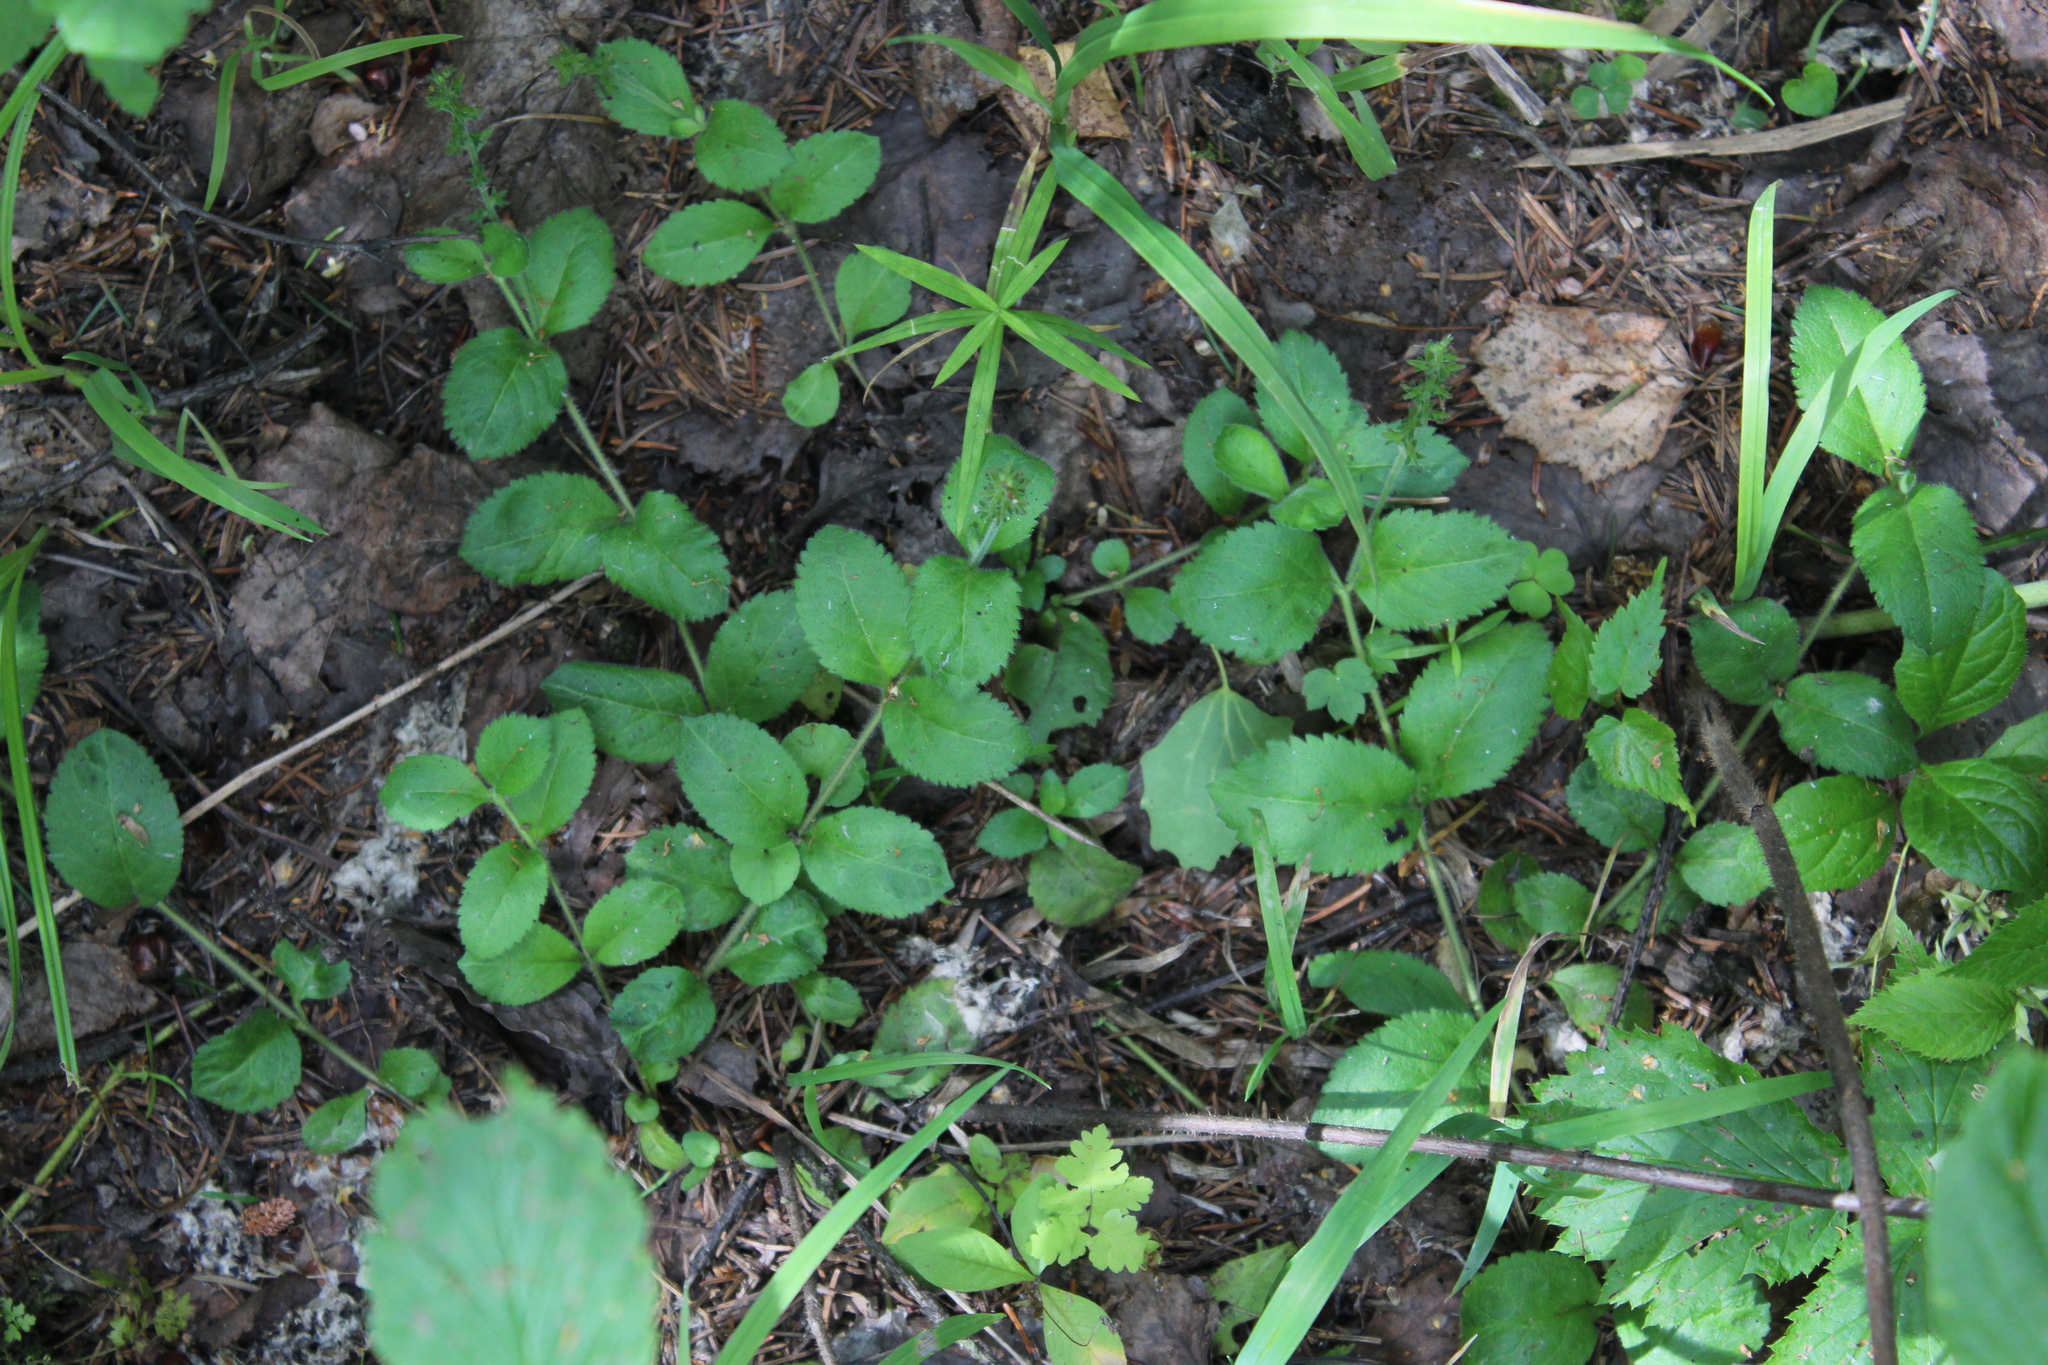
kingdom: Plantae
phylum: Tracheophyta
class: Magnoliopsida
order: Lamiales
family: Plantaginaceae
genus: Veronica
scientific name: Veronica officinalis
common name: Common speedwell
